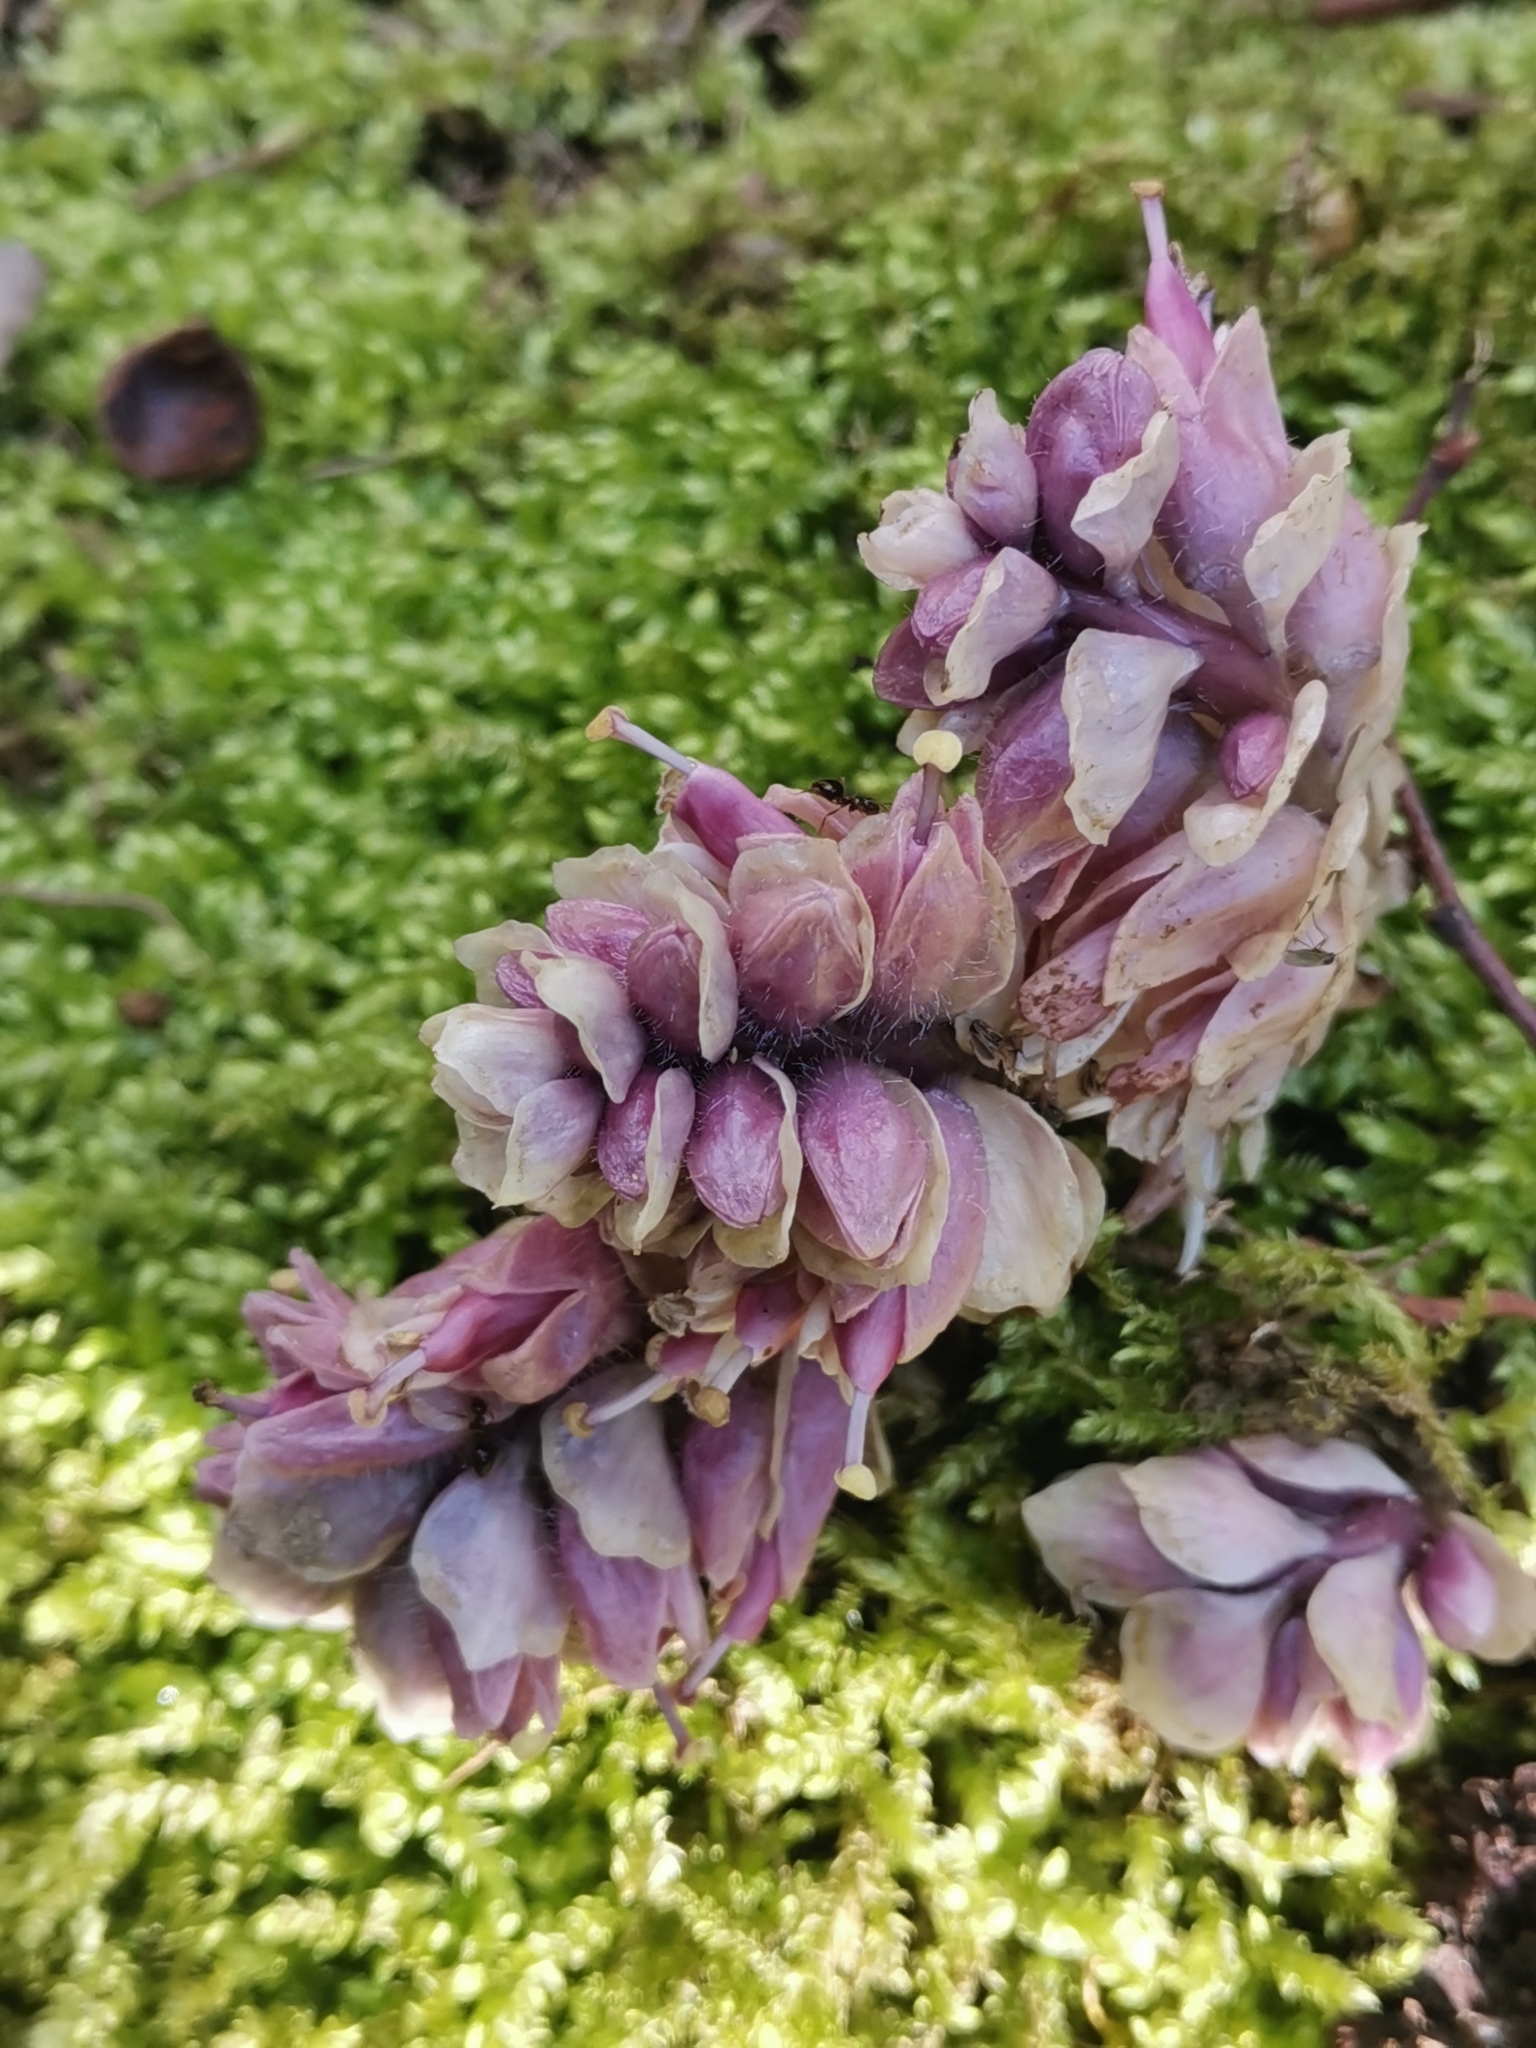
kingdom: Plantae
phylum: Tracheophyta
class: Magnoliopsida
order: Lamiales
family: Orobanchaceae
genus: Lathraea
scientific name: Lathraea squamaria
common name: Toothwort
